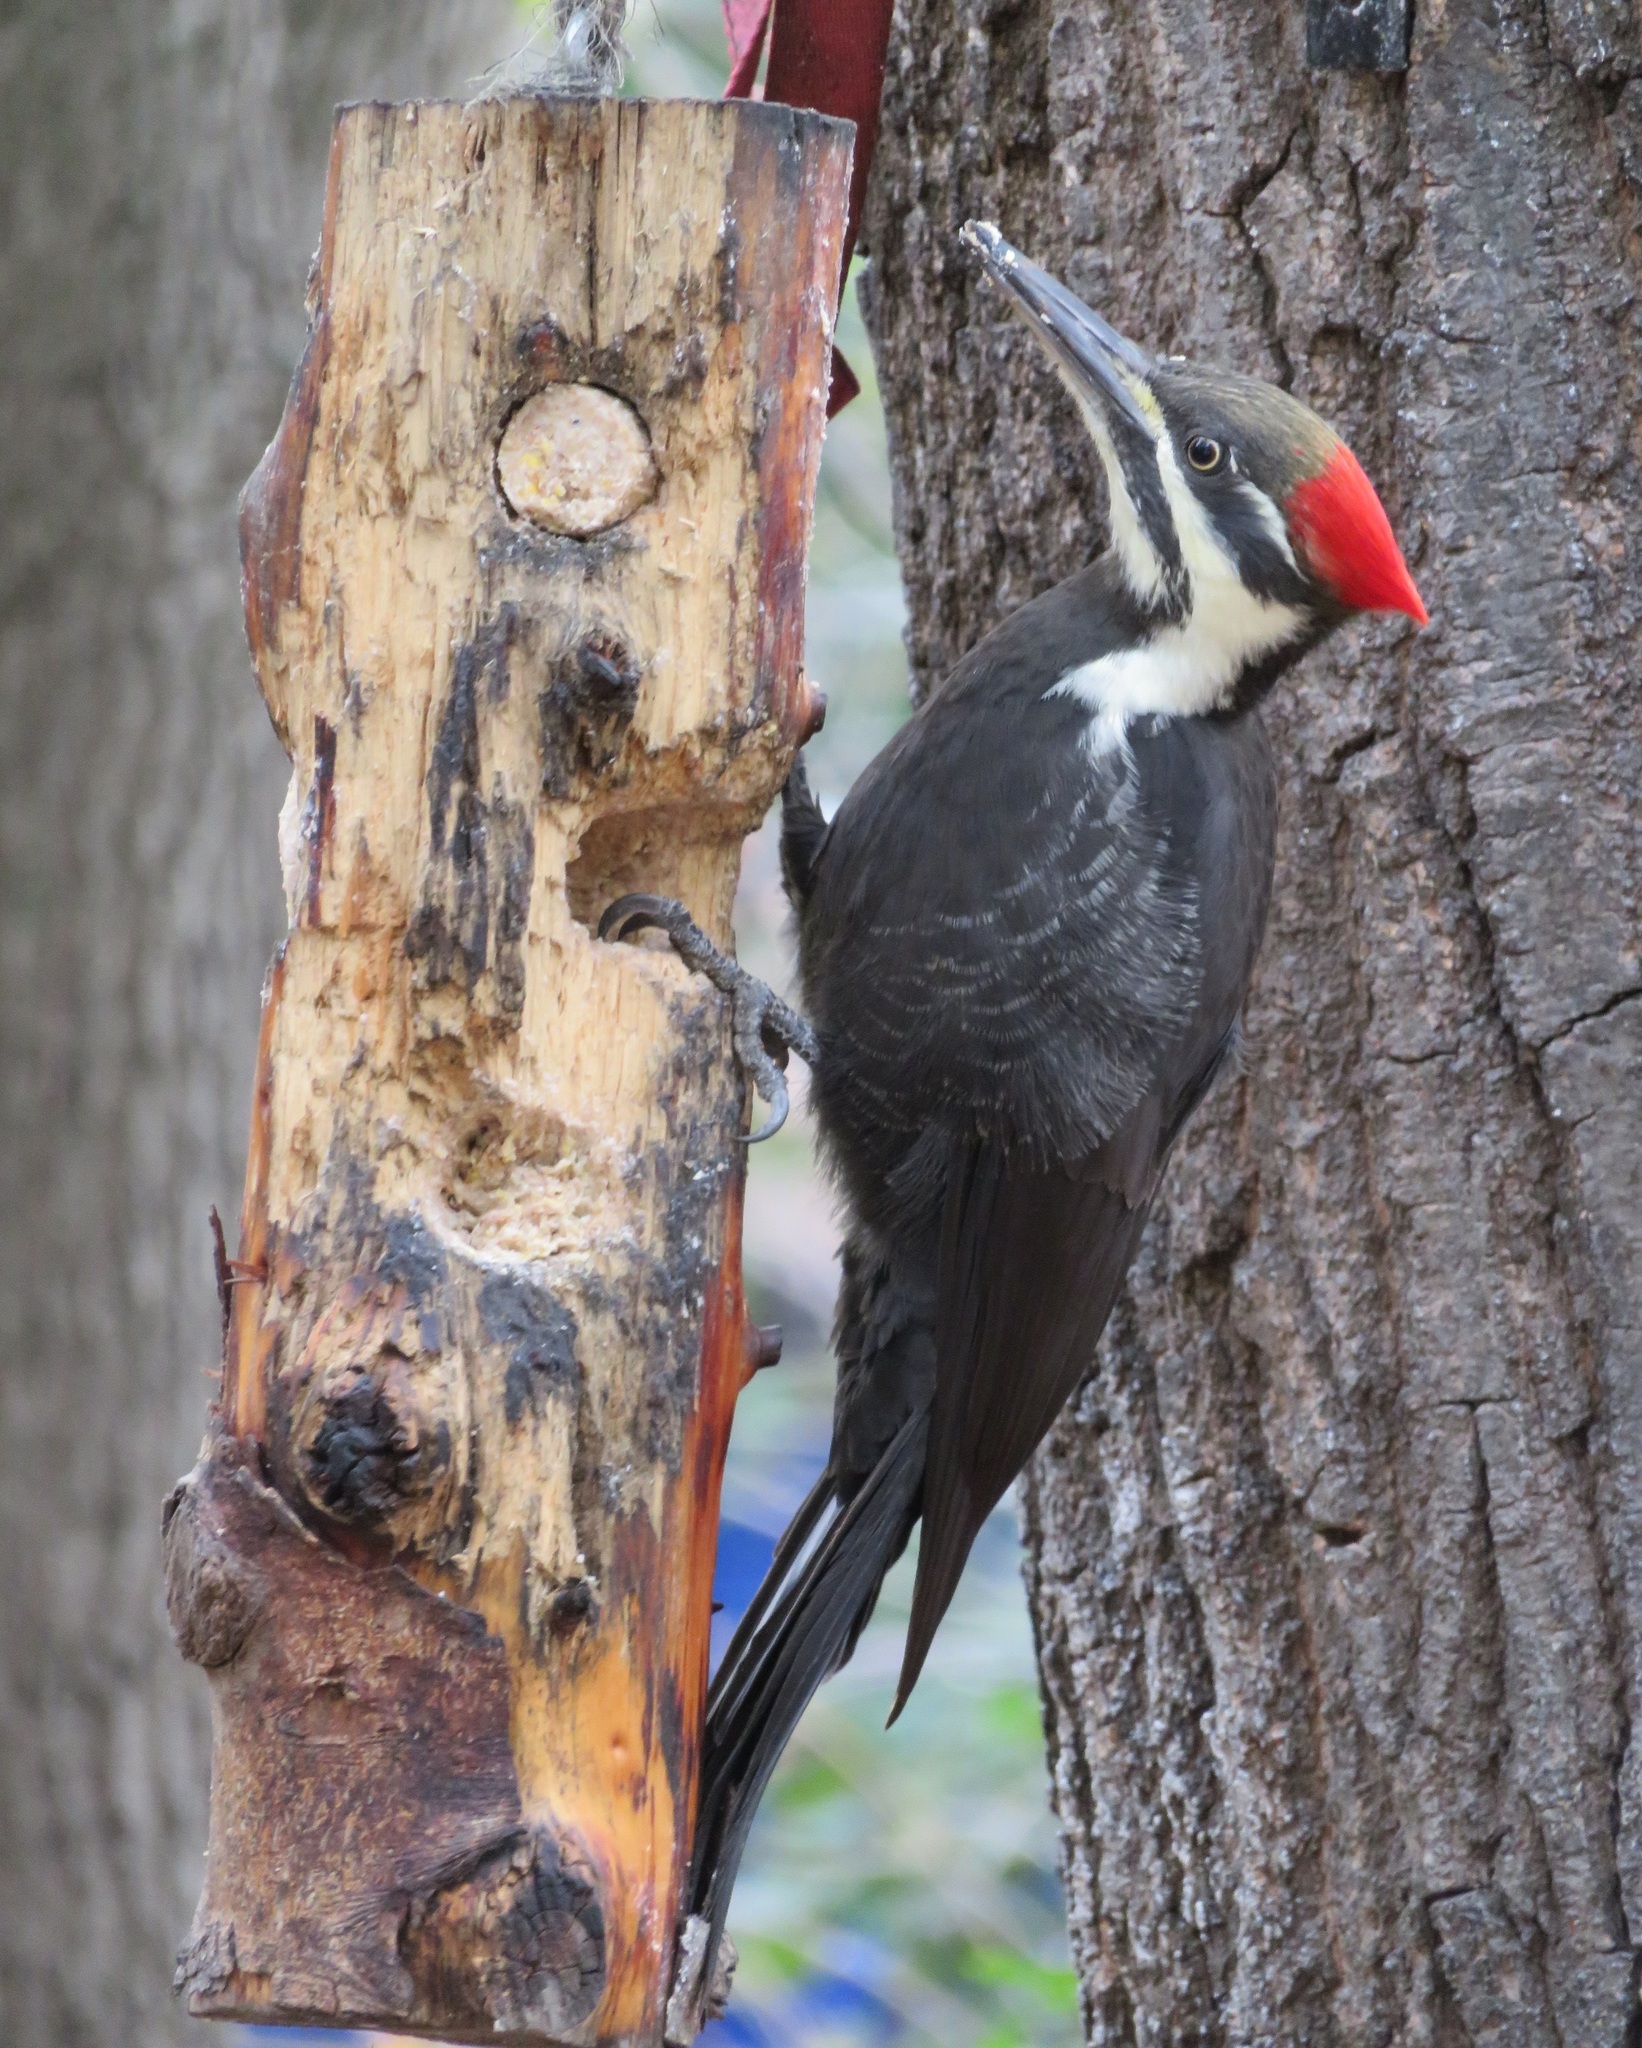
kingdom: Animalia
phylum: Chordata
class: Aves
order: Piciformes
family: Picidae
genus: Dryocopus
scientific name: Dryocopus pileatus
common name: Pileated woodpecker
